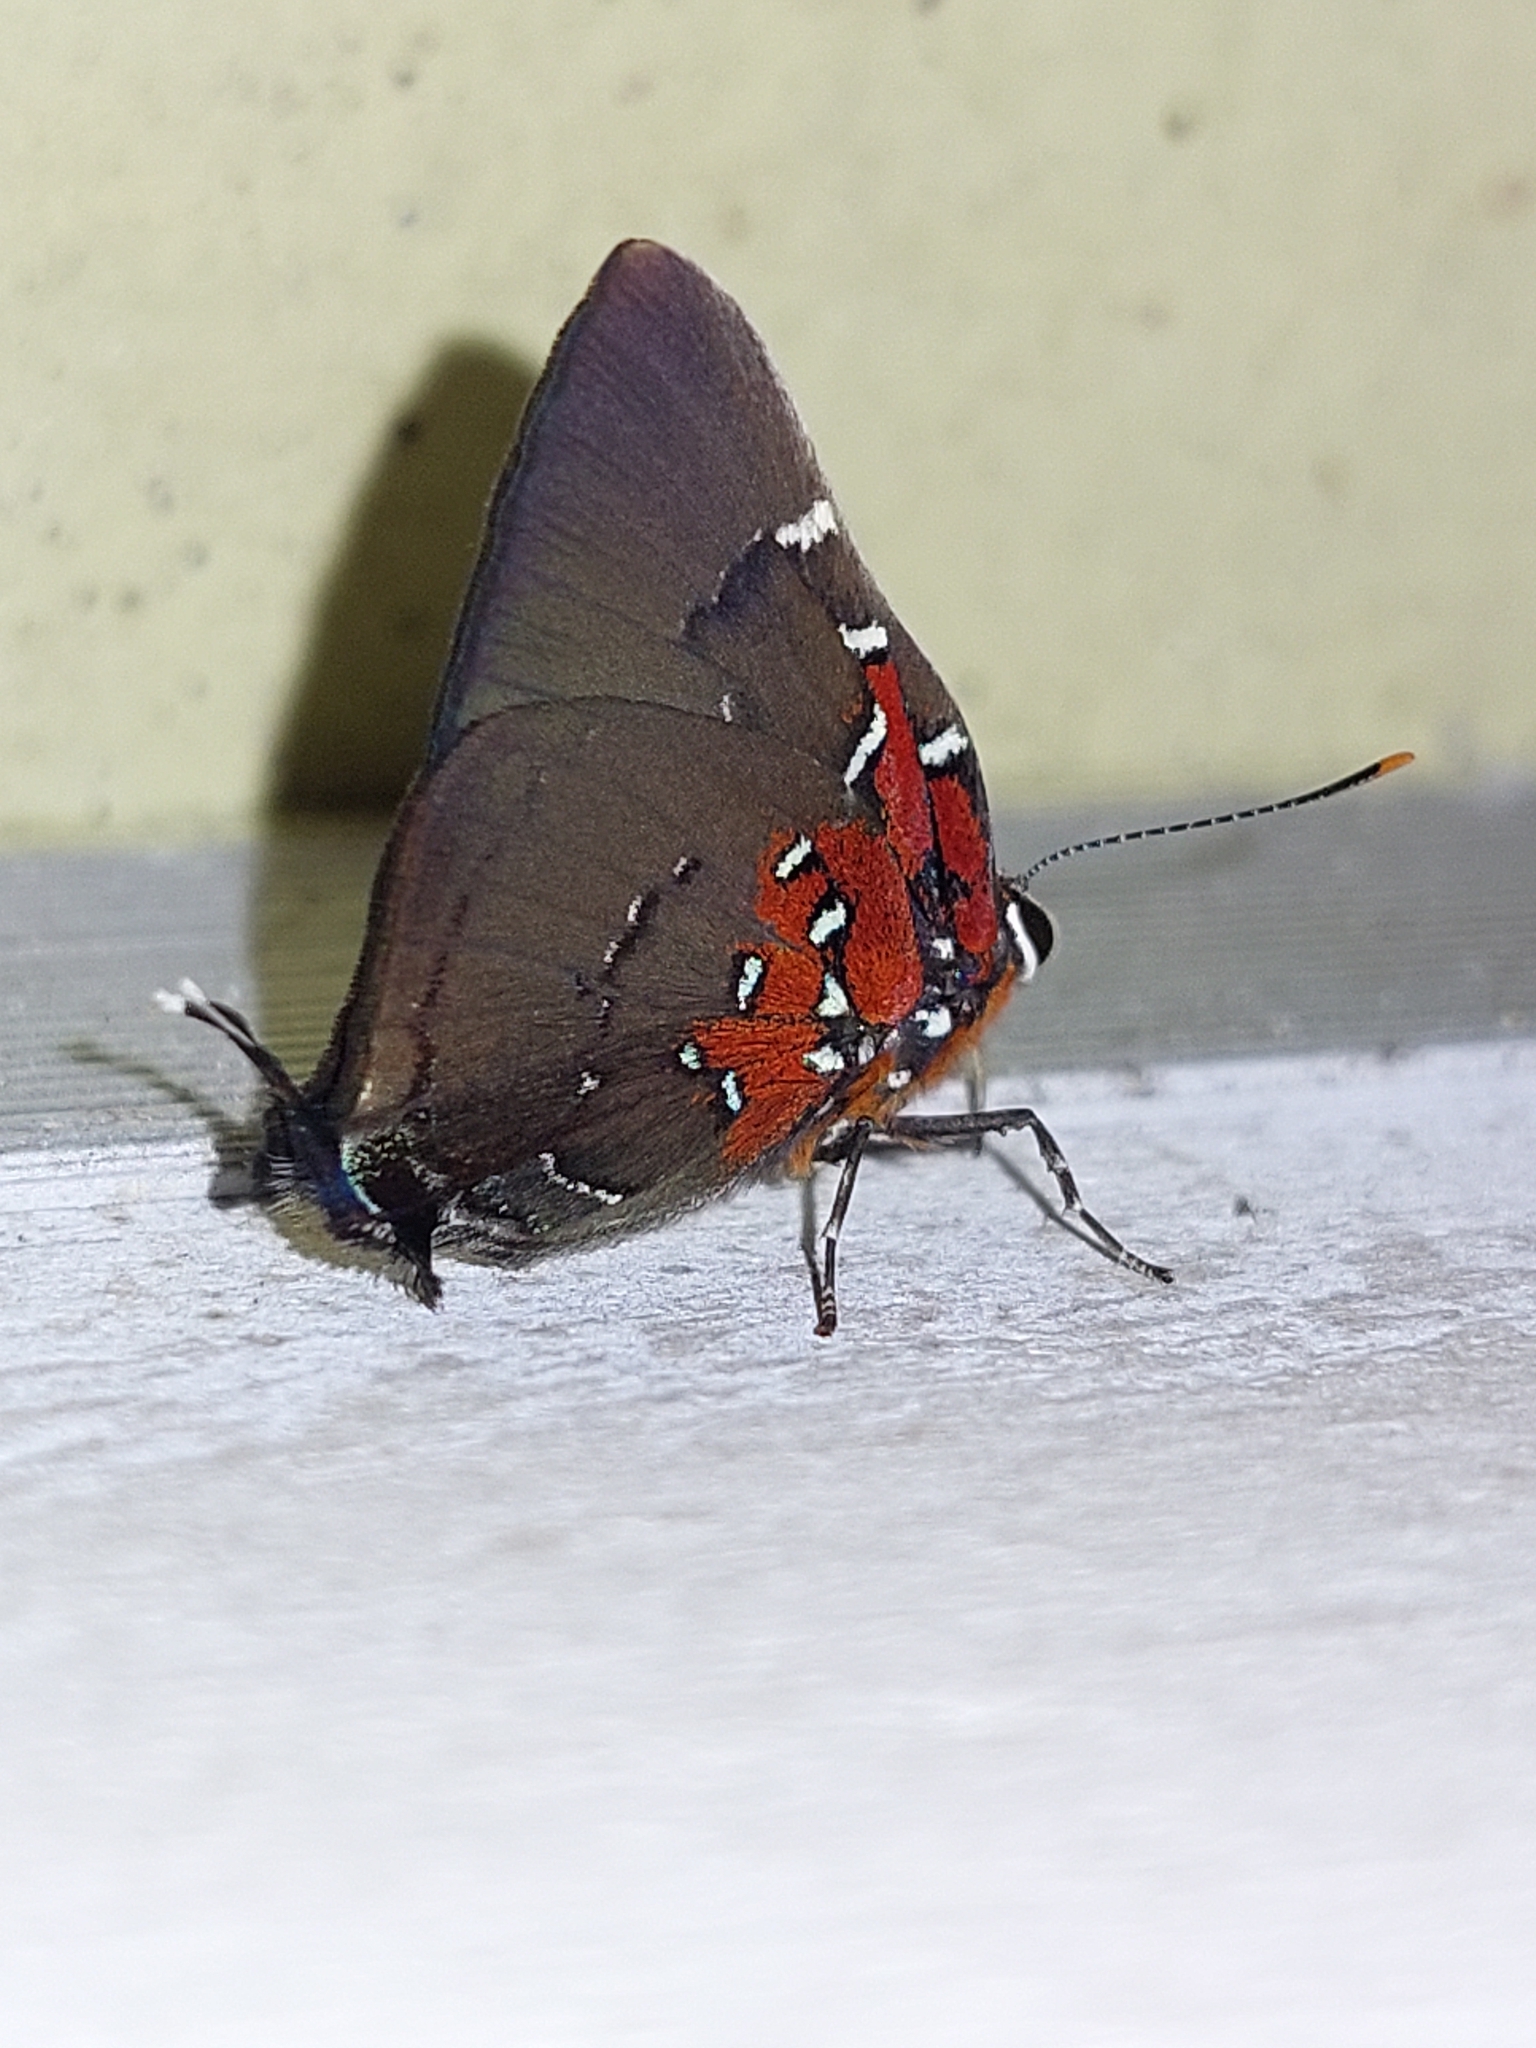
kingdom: Animalia
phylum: Arthropoda
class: Insecta
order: Lepidoptera
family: Lycaenidae
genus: Atlides
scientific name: Atlides Brangas neora
